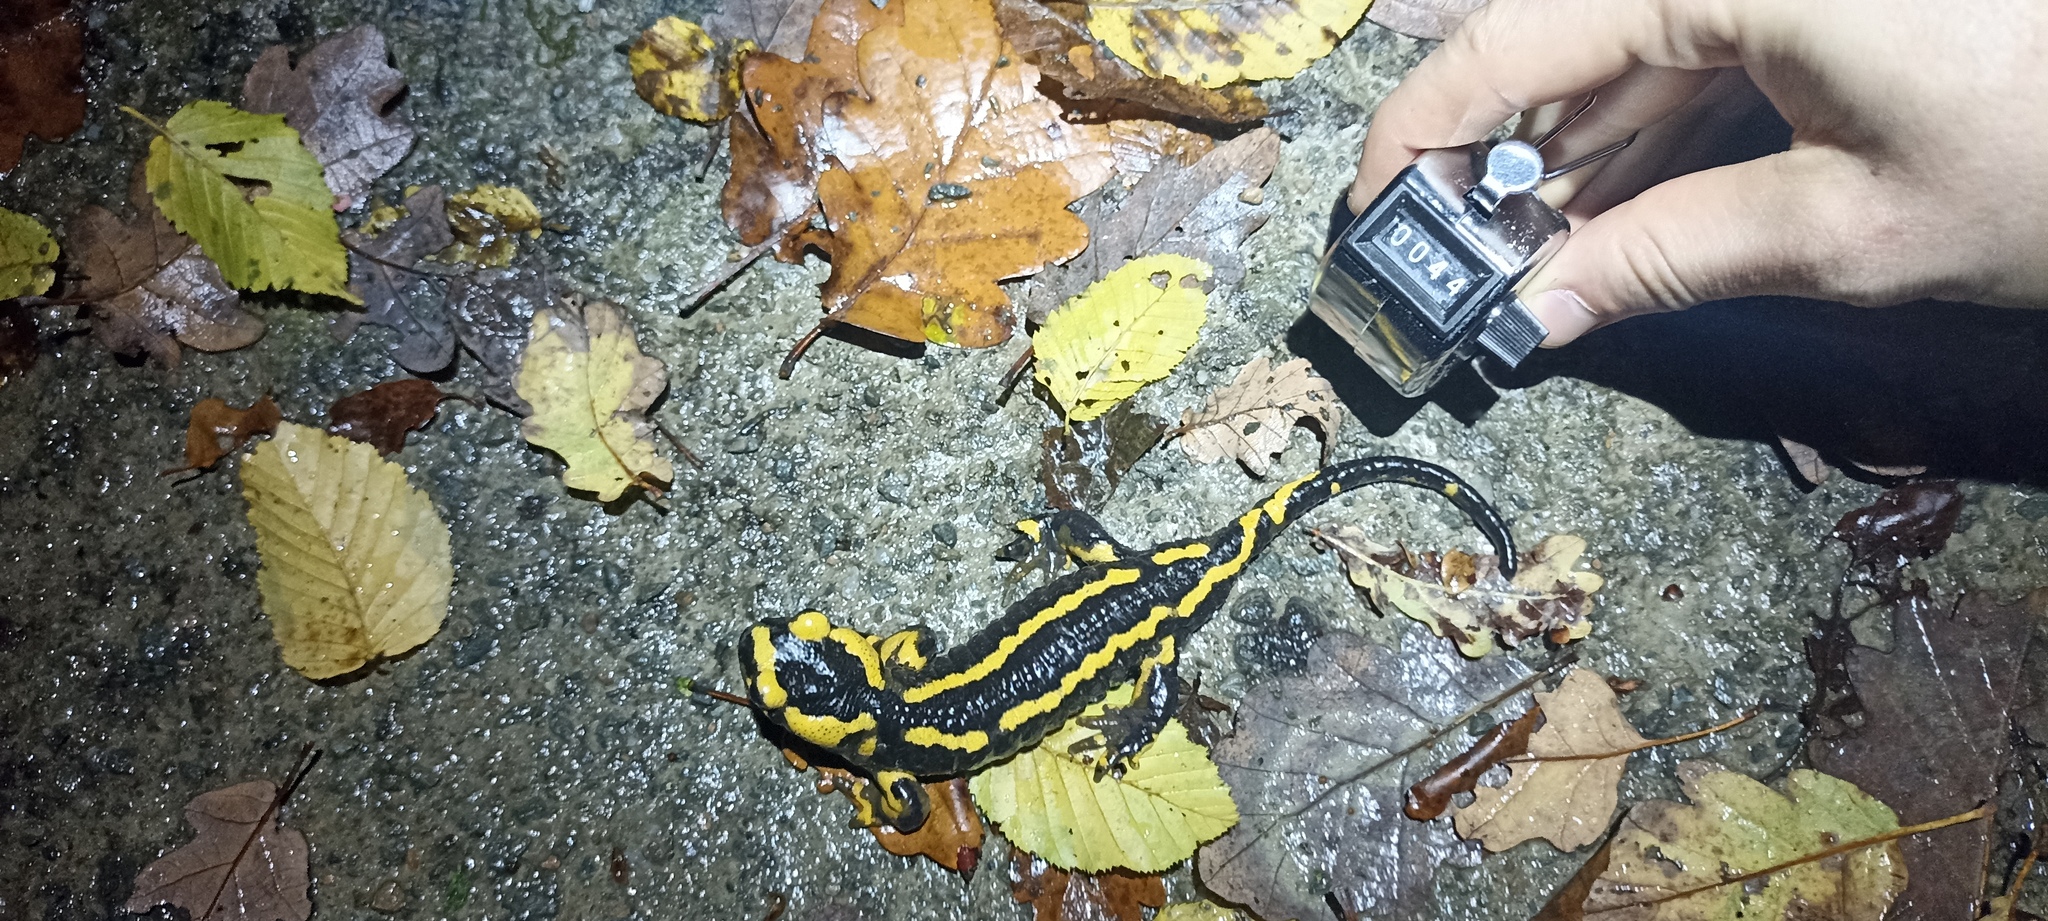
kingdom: Animalia
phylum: Chordata
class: Amphibia
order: Caudata
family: Salamandridae
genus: Salamandra
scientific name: Salamandra salamandra
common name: Fire salamander
